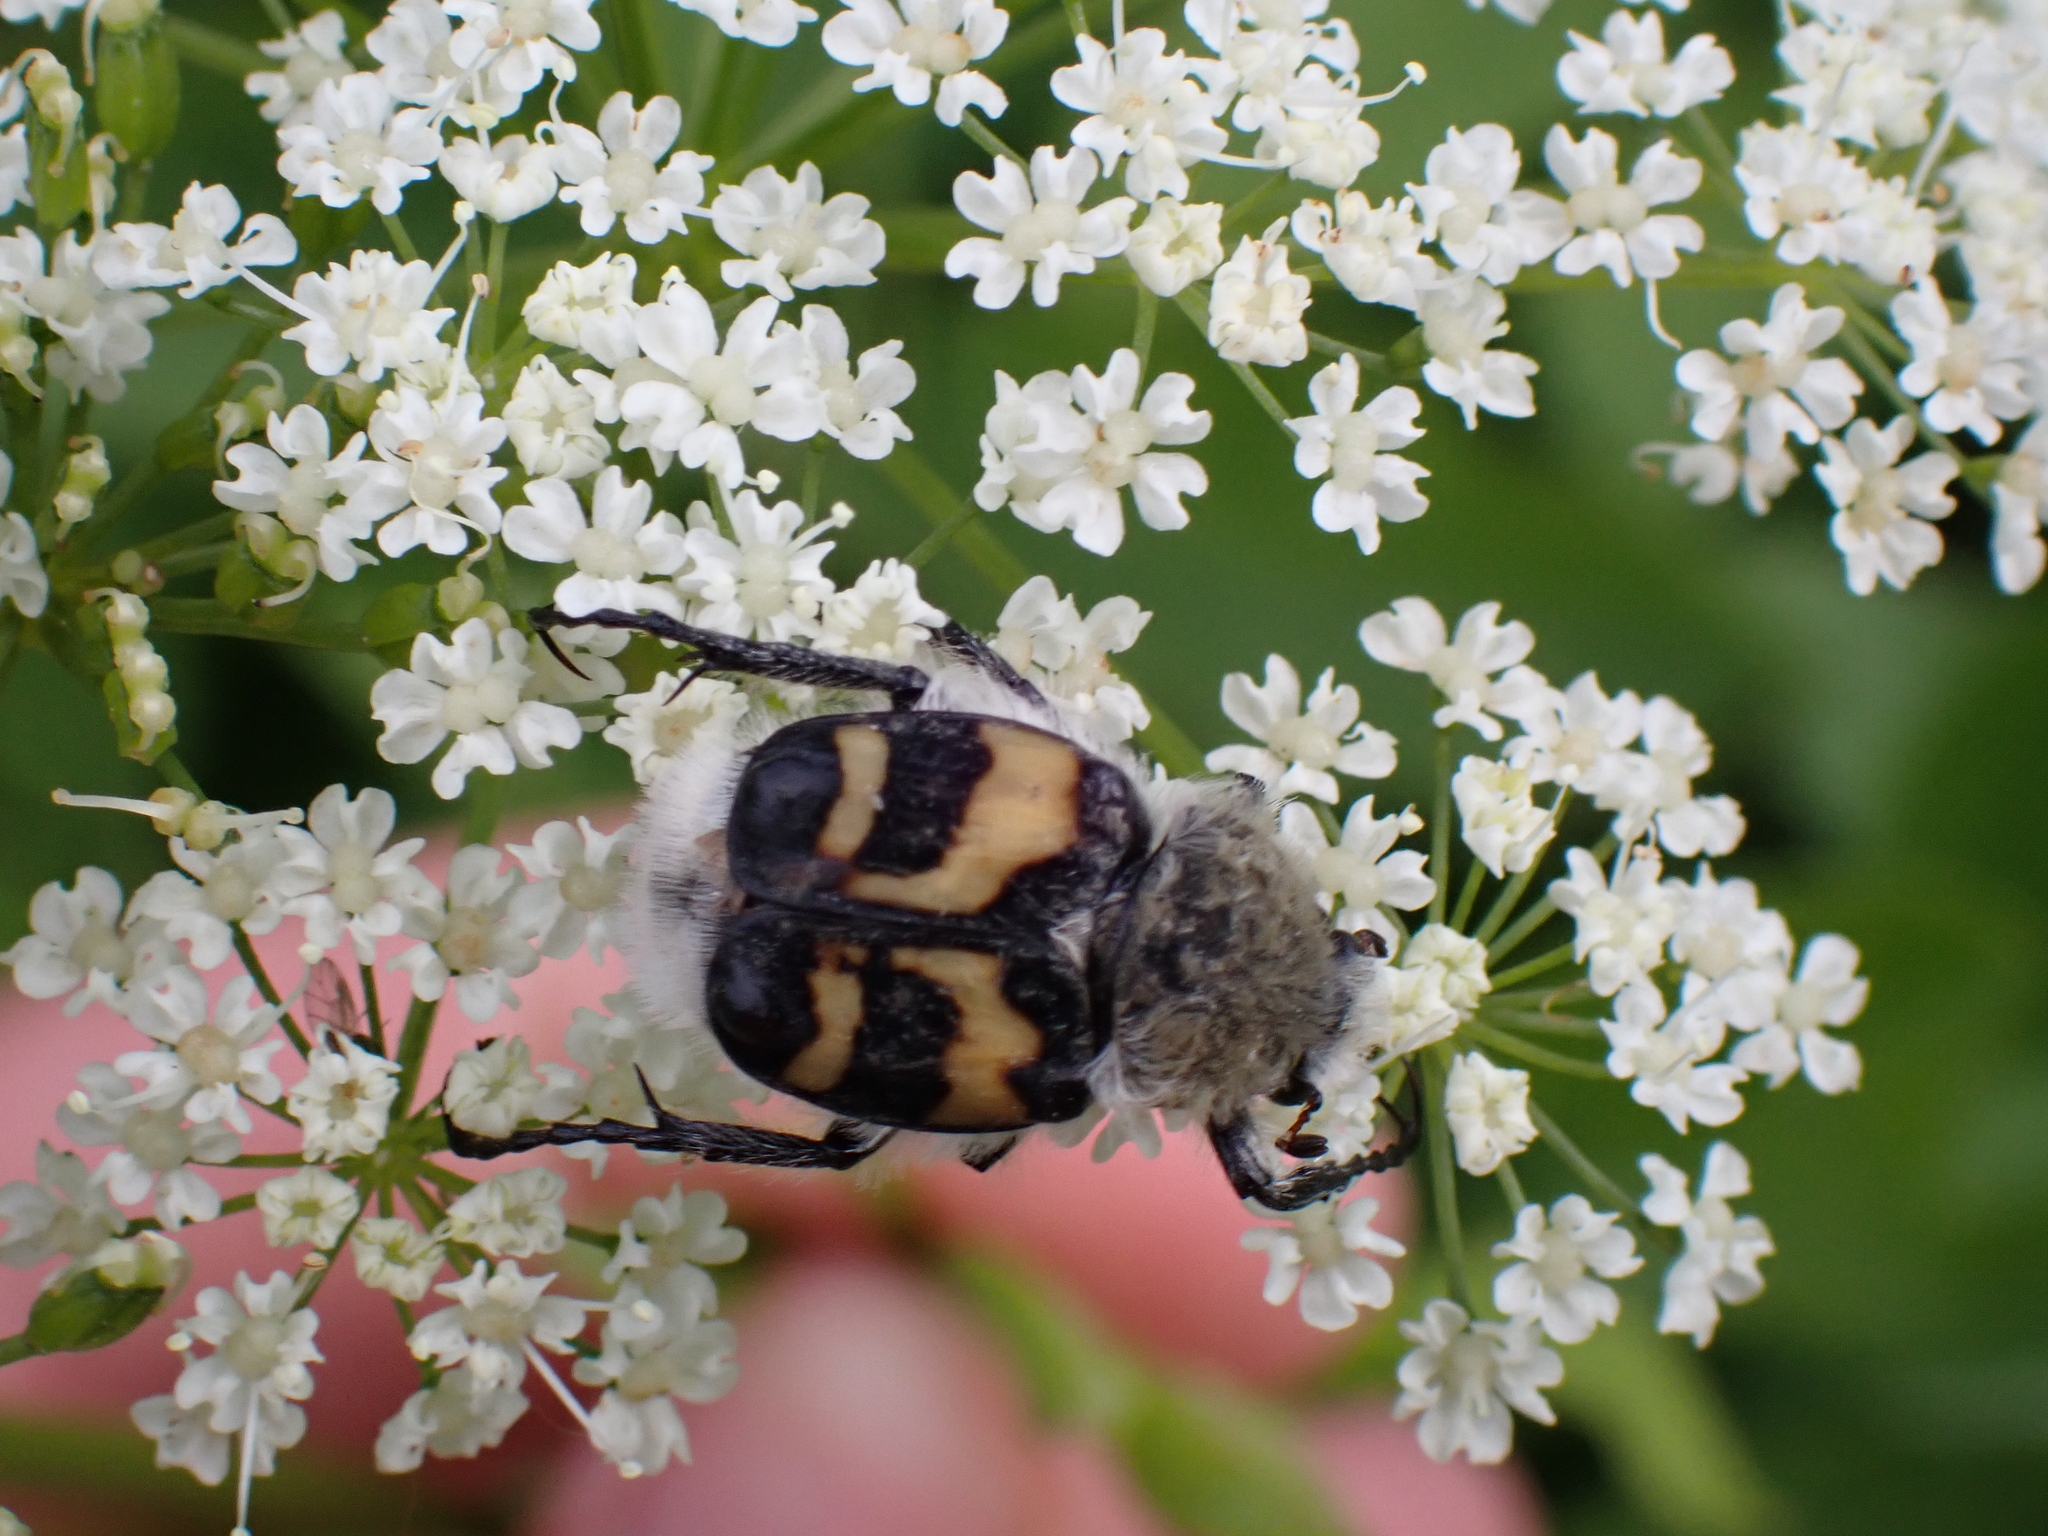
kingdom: Animalia
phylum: Arthropoda
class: Insecta
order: Coleoptera
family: Scarabaeidae
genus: Trichius
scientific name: Trichius fasciatus
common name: Bee beetle
